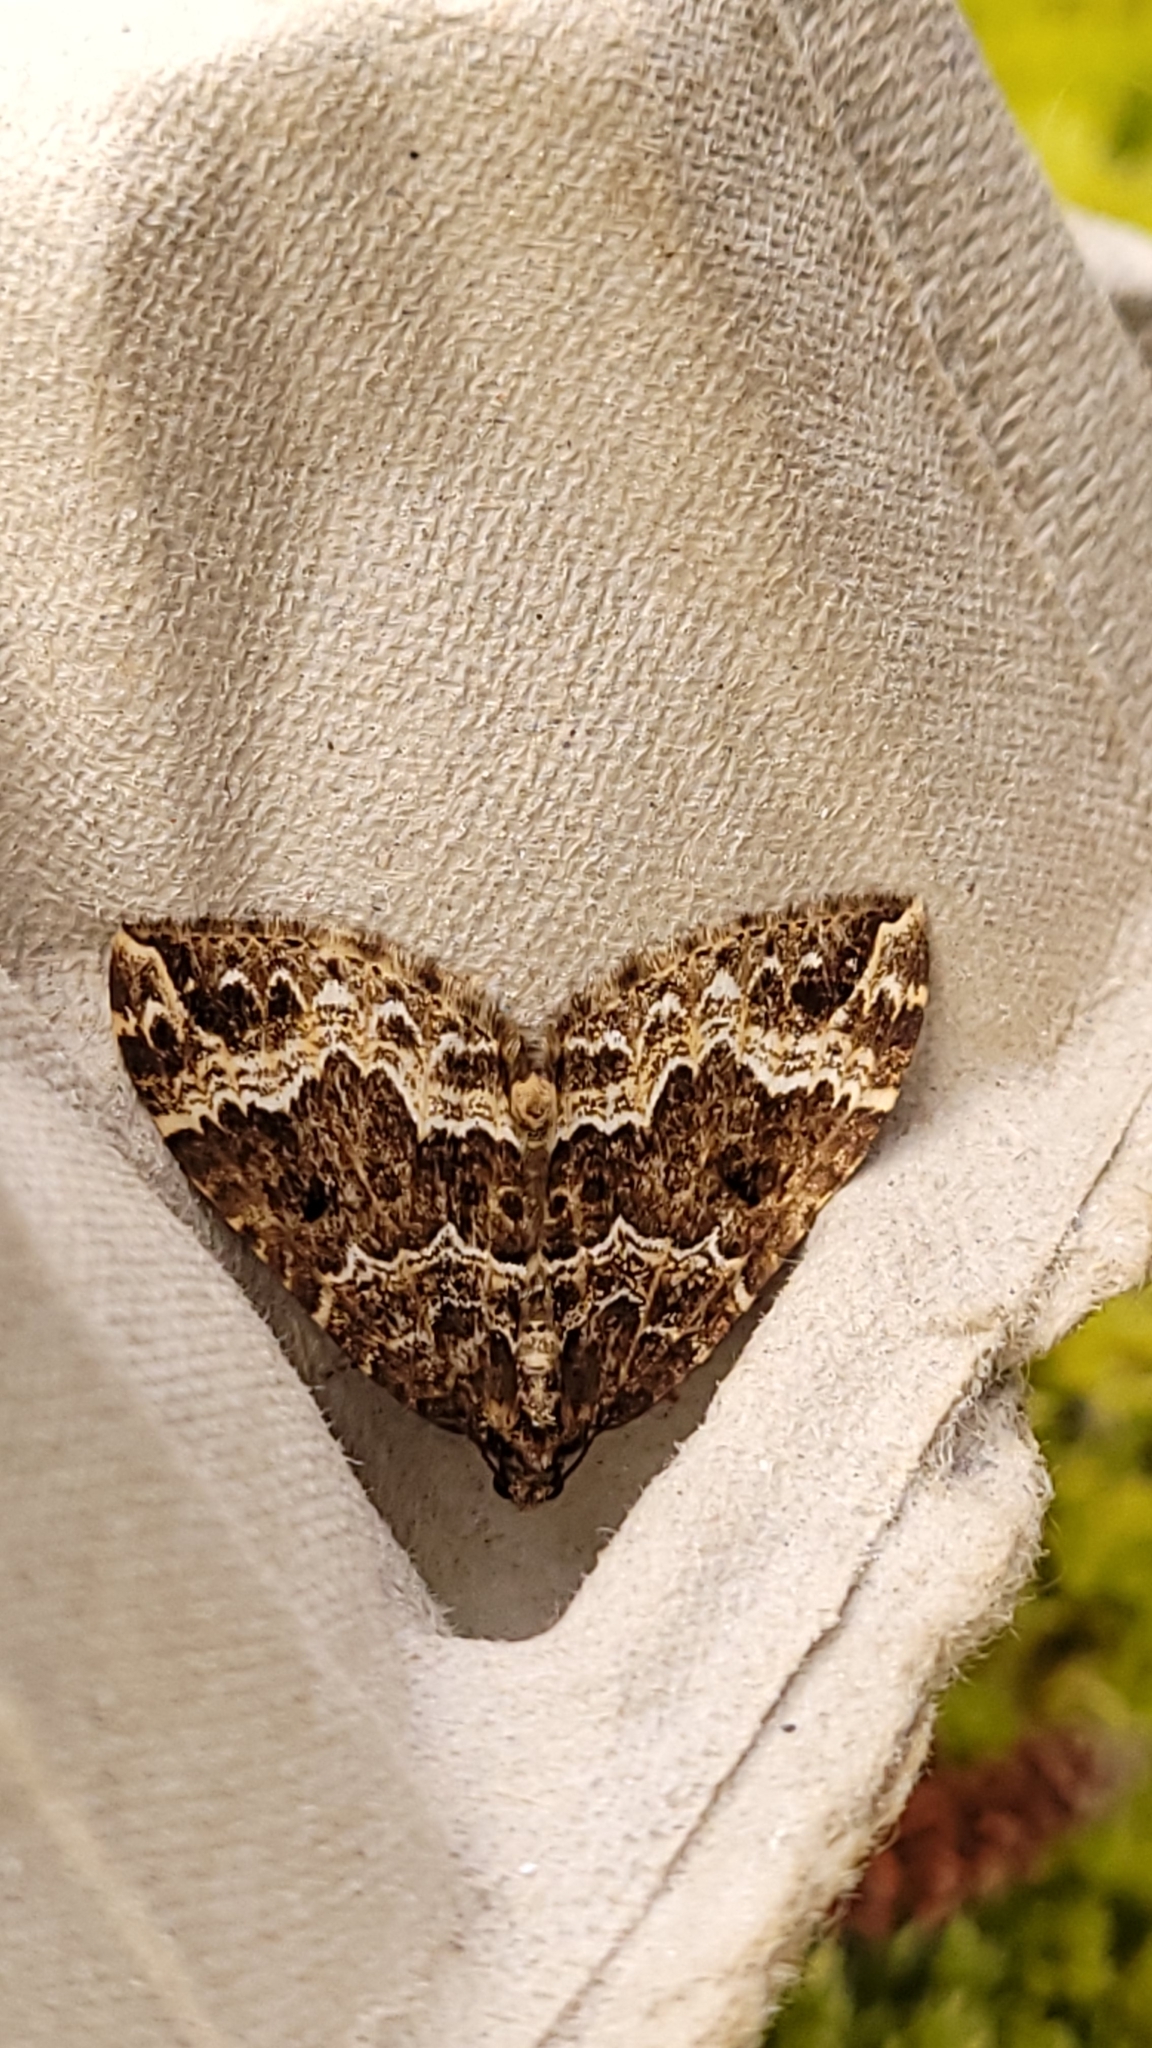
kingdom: Animalia
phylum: Arthropoda
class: Insecta
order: Lepidoptera
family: Geometridae
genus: Lampropteryx
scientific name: Lampropteryx suffumata
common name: Water carpet
